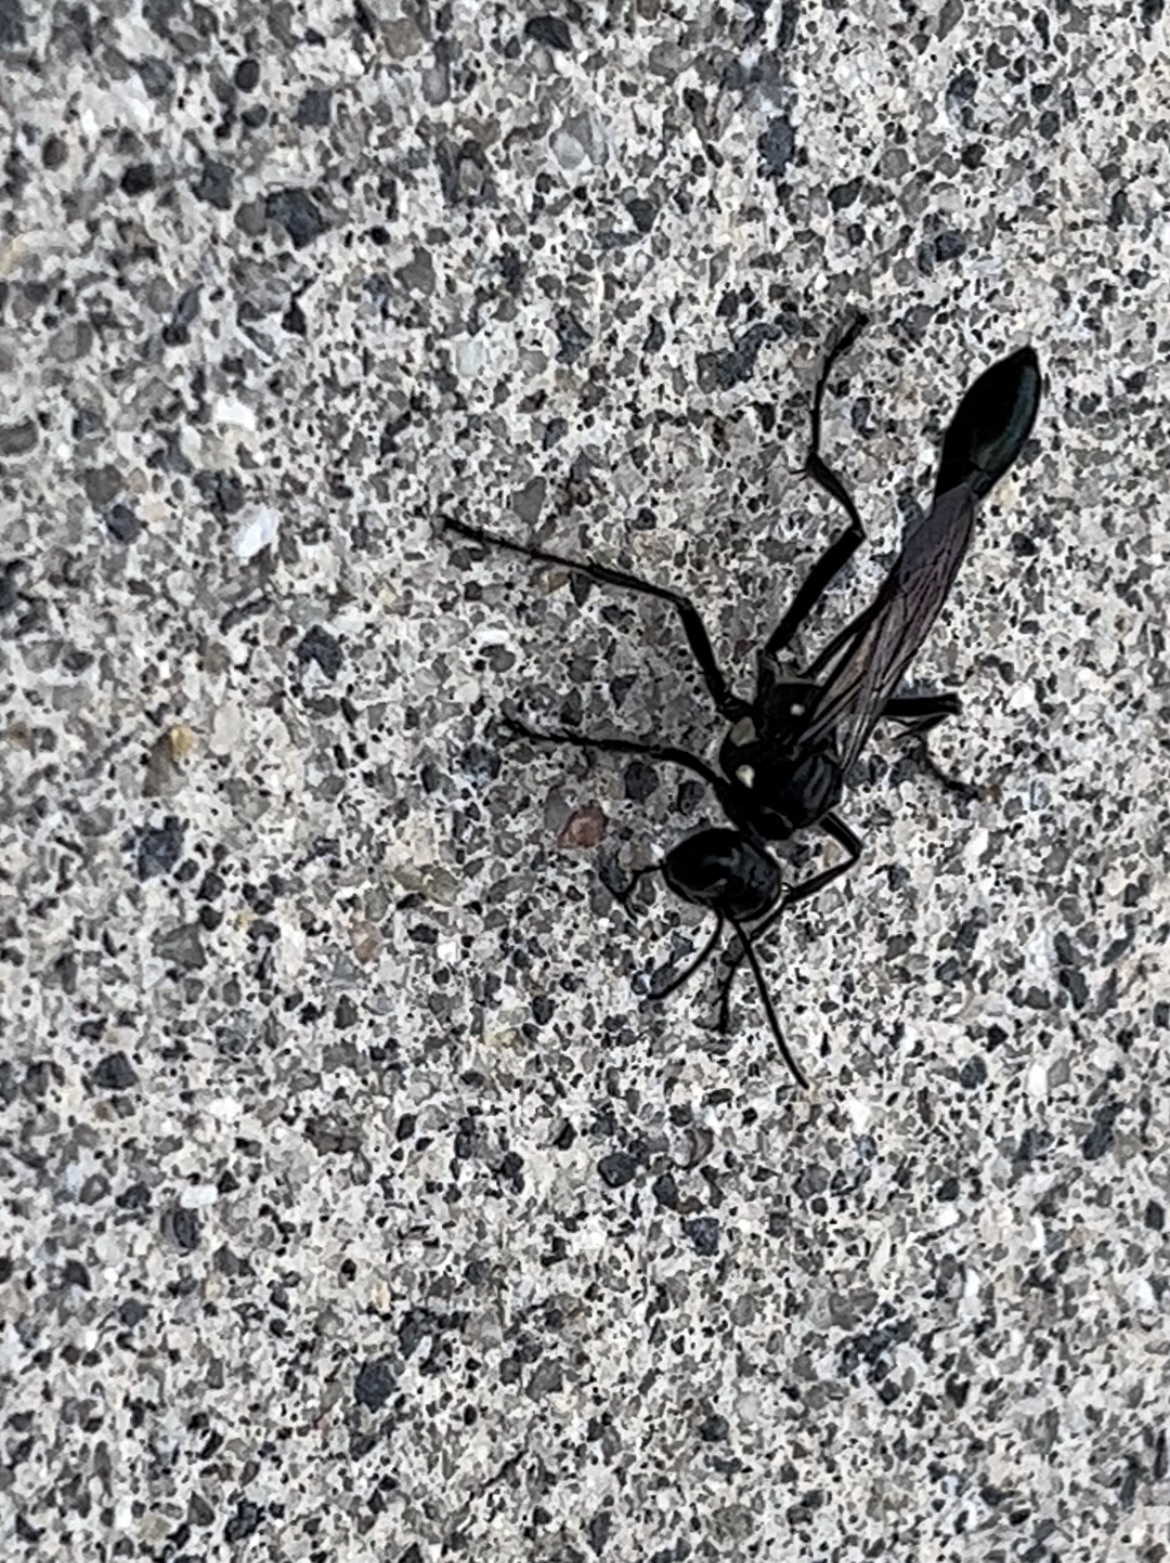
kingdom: Animalia
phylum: Arthropoda
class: Insecta
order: Hymenoptera
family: Sphecidae
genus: Eremnophila
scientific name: Eremnophila aureonotata
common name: Gold-marked thread-waisted wasp
